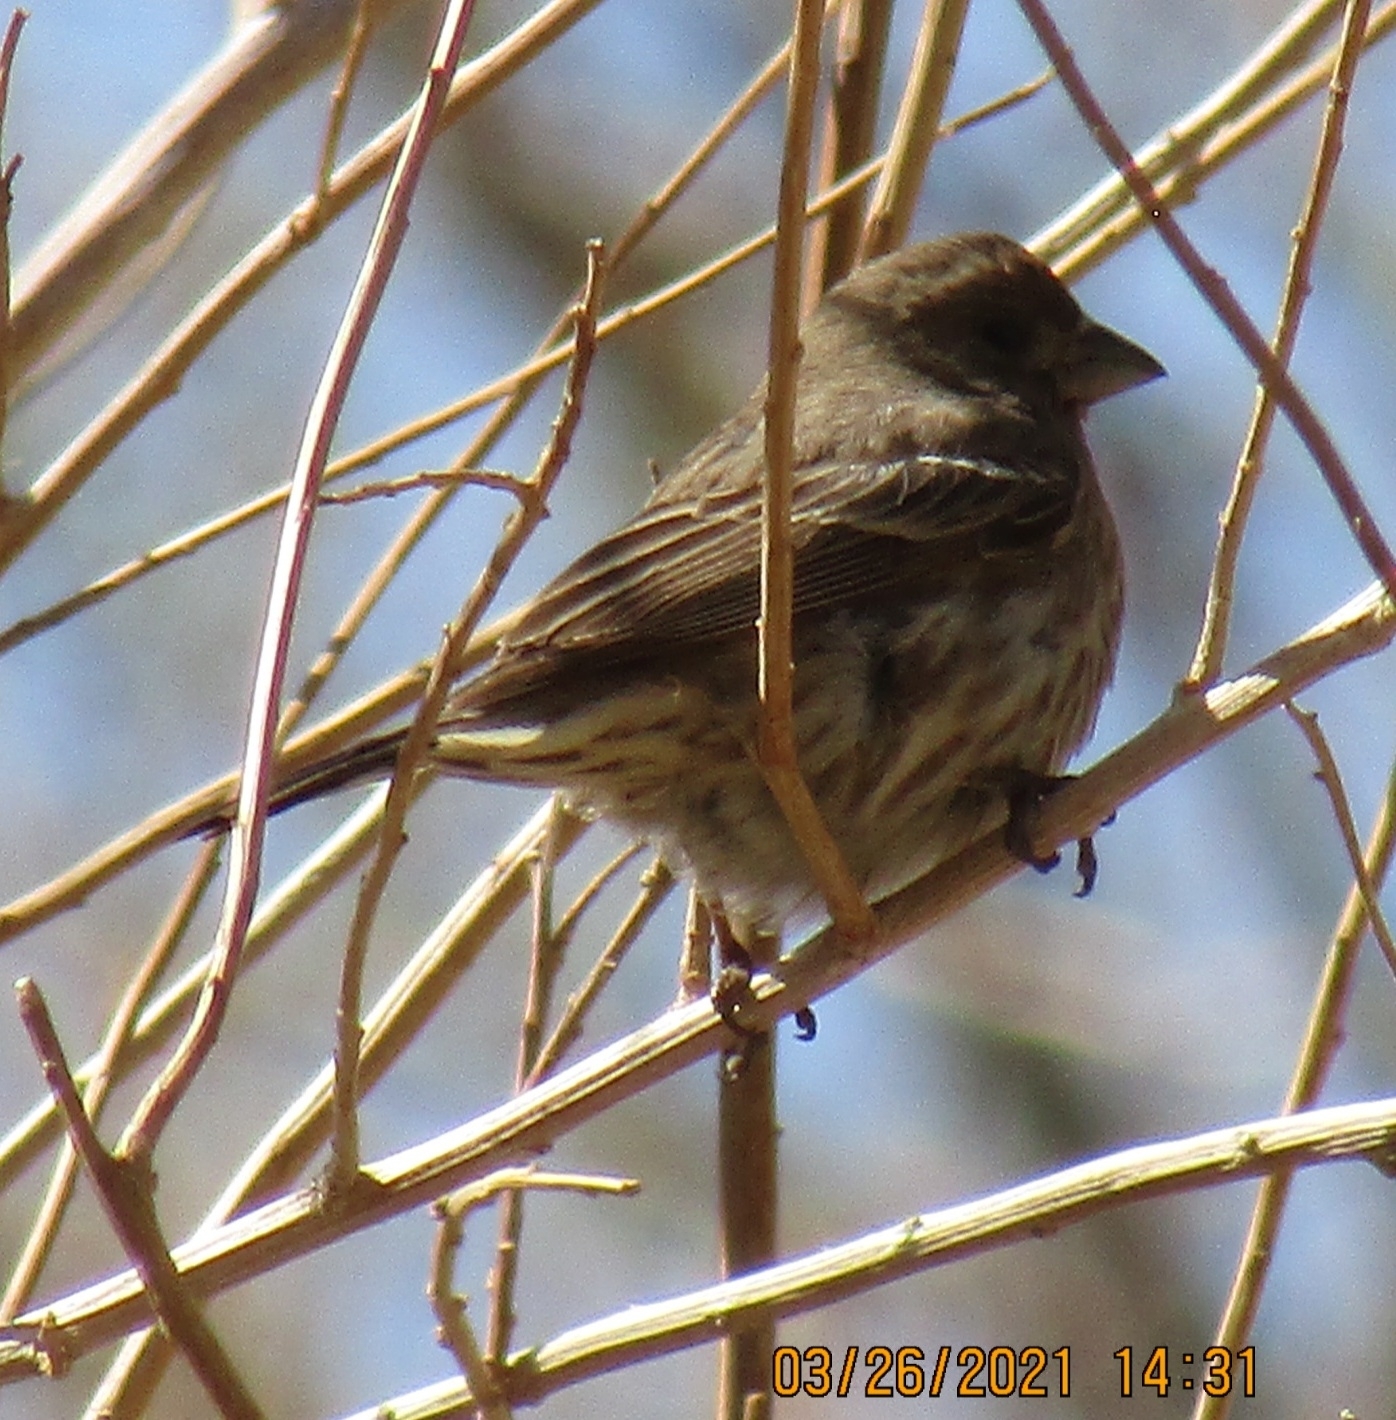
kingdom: Animalia
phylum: Chordata
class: Aves
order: Passeriformes
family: Fringillidae
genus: Haemorhous
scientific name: Haemorhous mexicanus
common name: House finch
